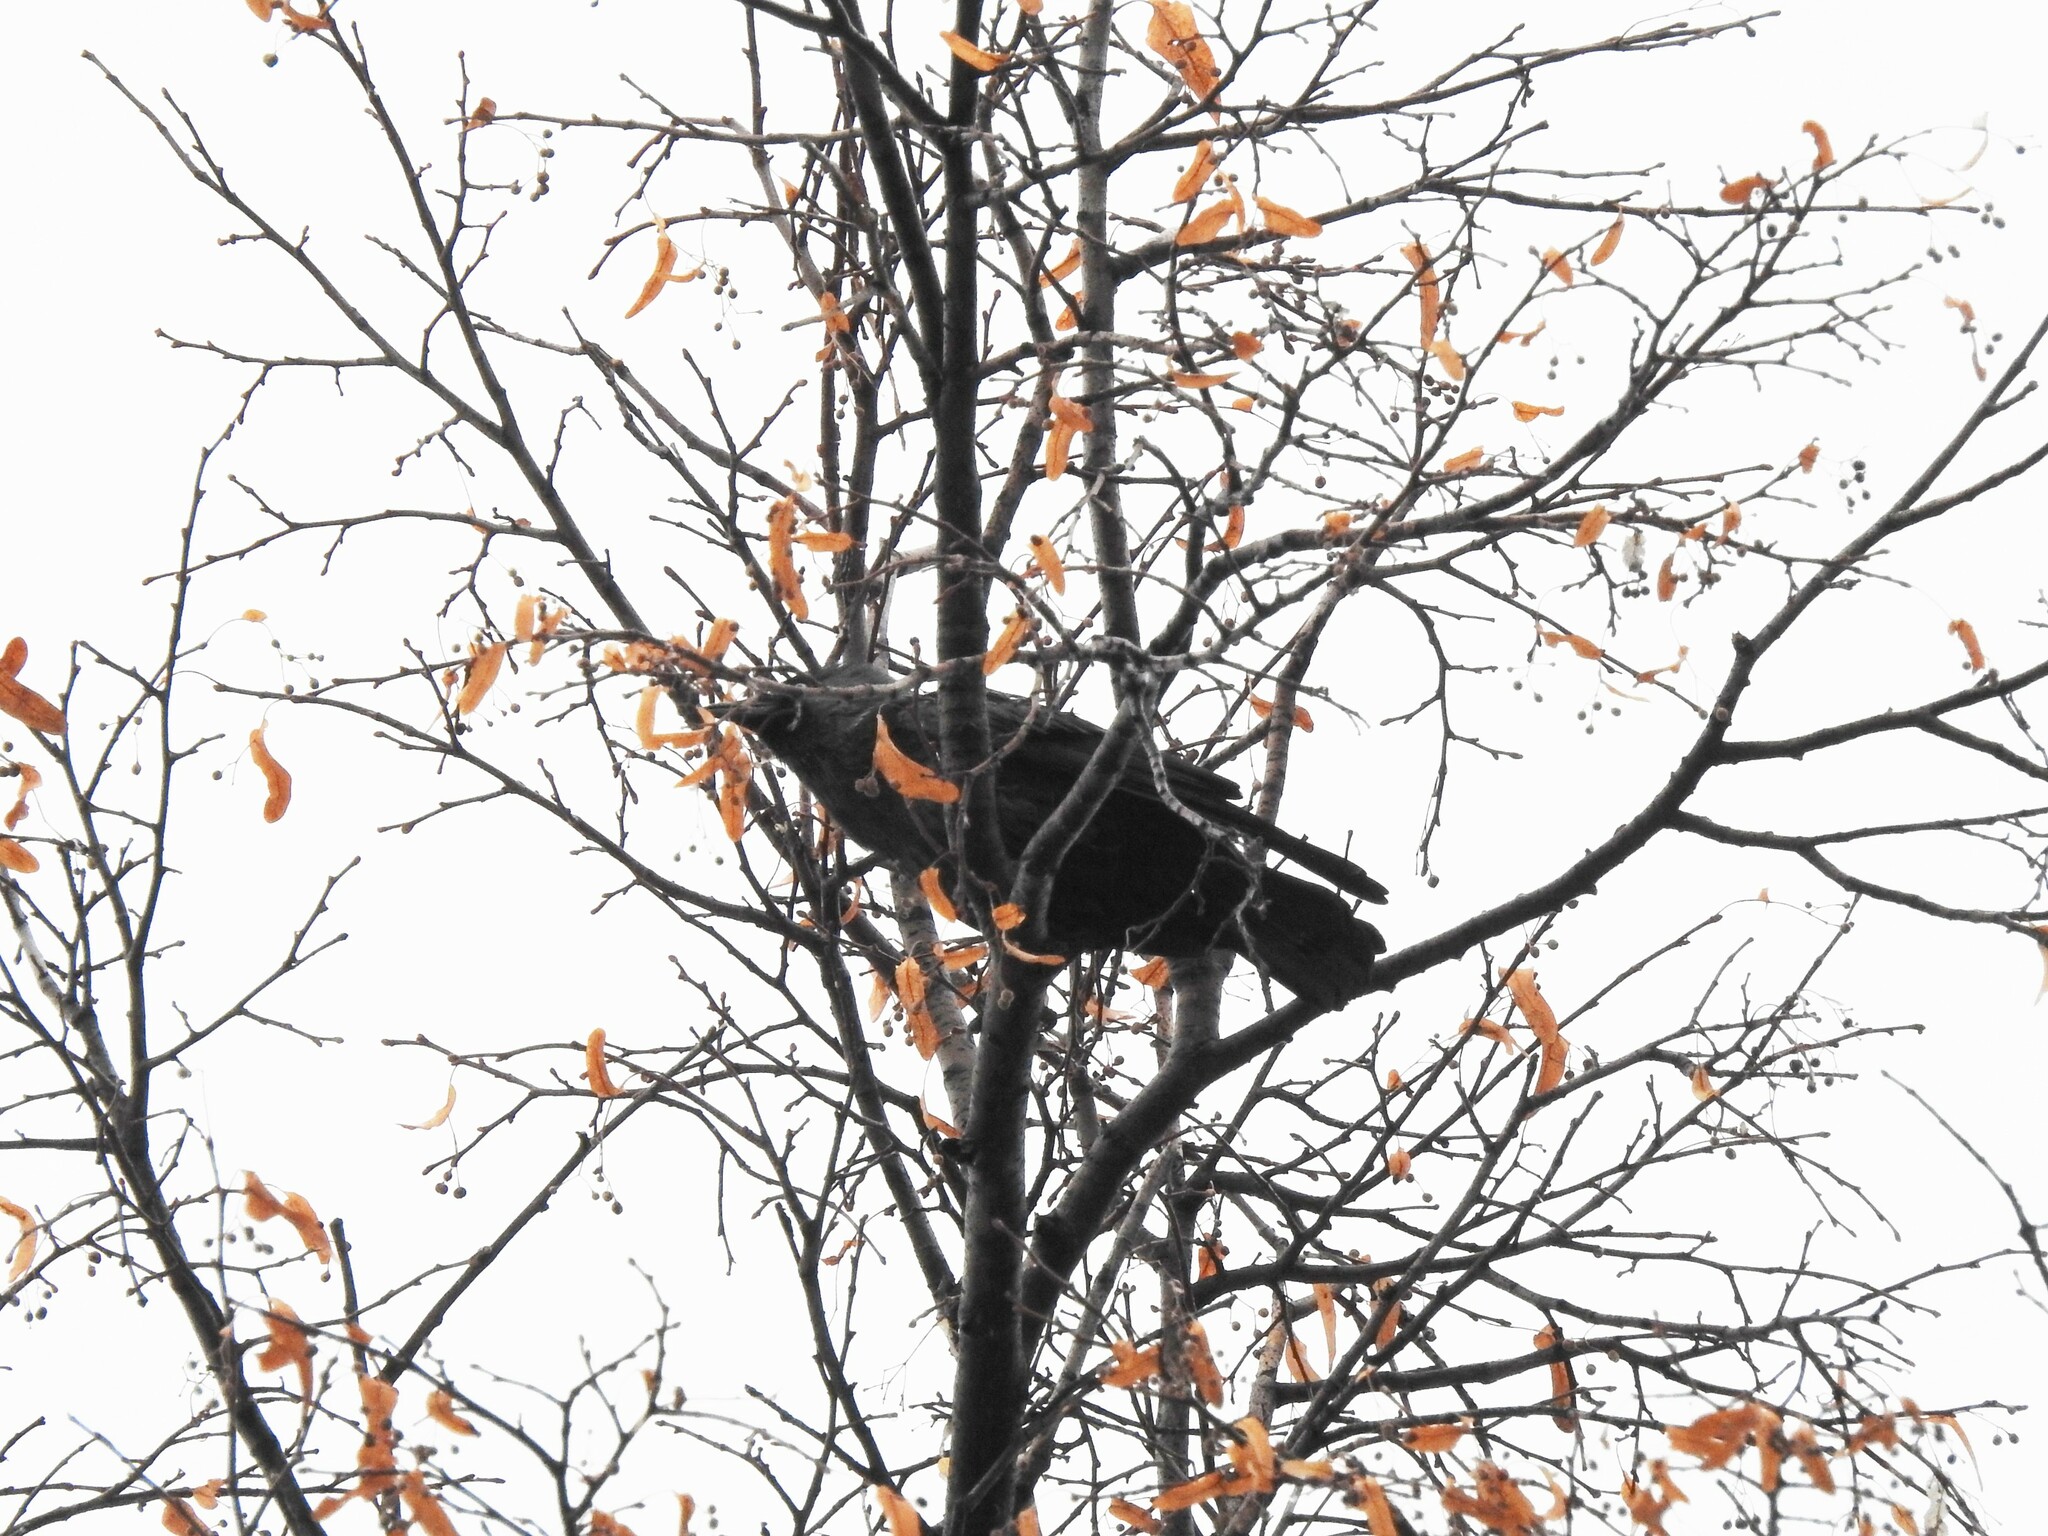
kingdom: Animalia
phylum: Chordata
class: Aves
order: Passeriformes
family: Corvidae
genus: Coloeus
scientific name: Coloeus monedula
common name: Western jackdaw
